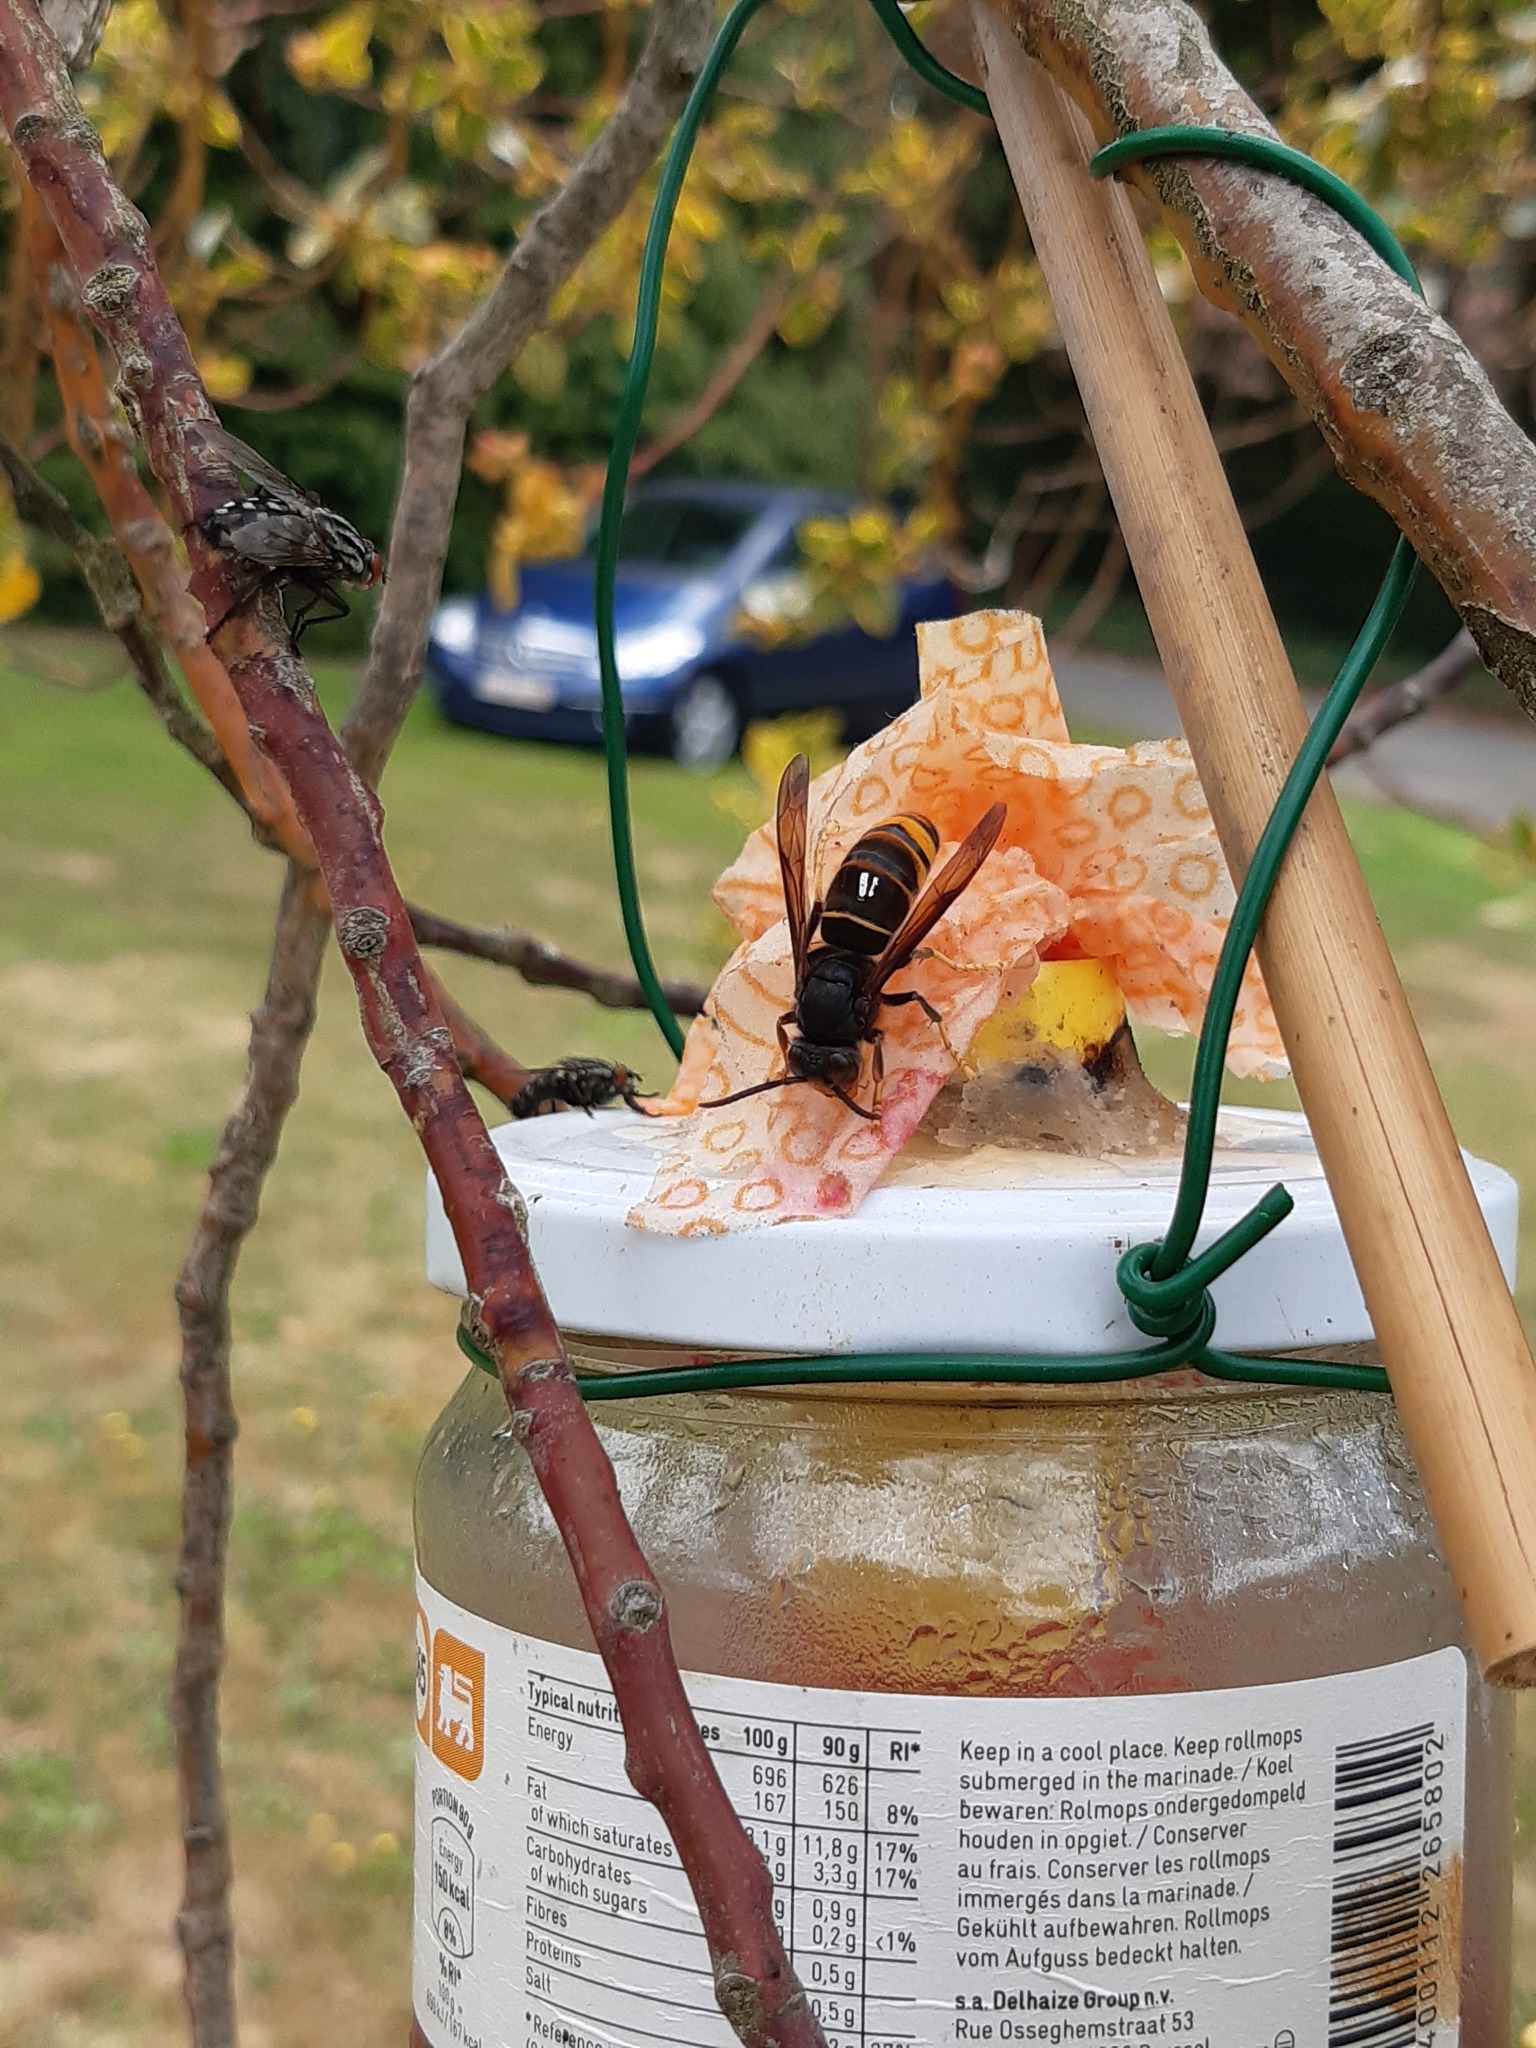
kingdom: Animalia
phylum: Arthropoda
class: Insecta
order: Hymenoptera
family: Vespidae
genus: Vespa
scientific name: Vespa velutina
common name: Asian hornet
